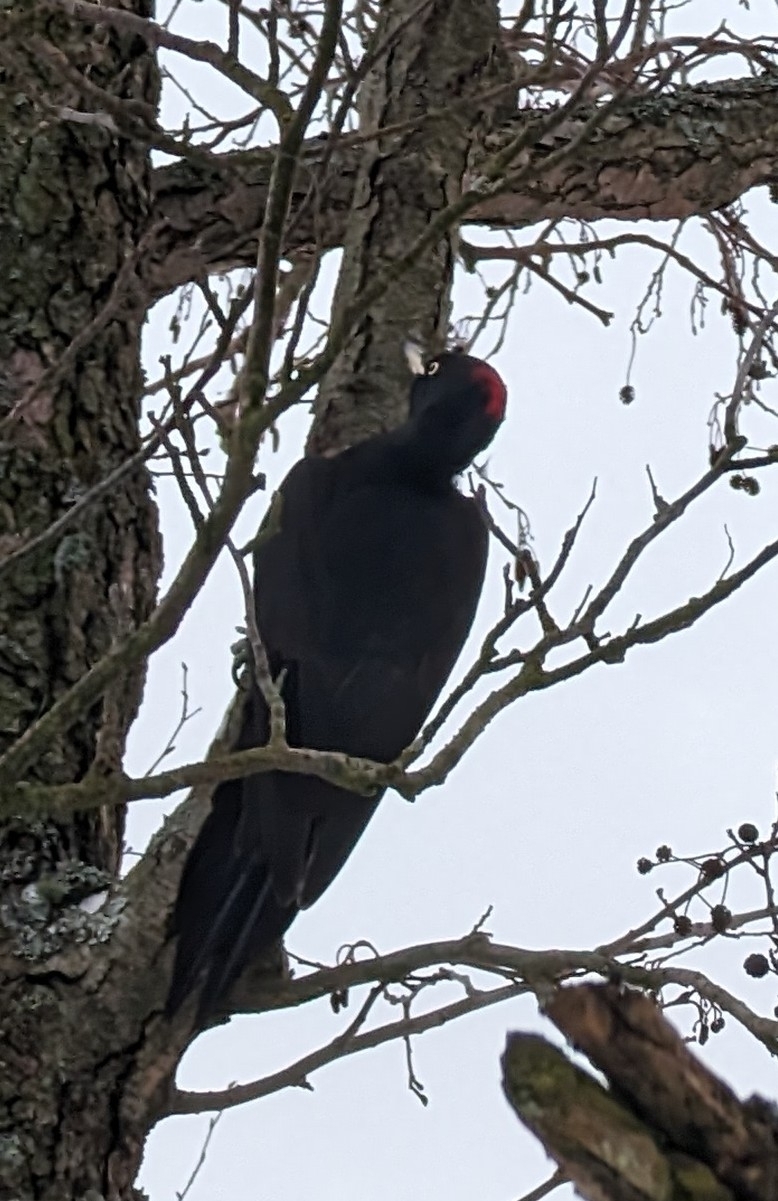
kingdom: Animalia
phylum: Chordata
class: Aves
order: Piciformes
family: Picidae
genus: Dryocopus
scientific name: Dryocopus martius
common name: Black woodpecker
